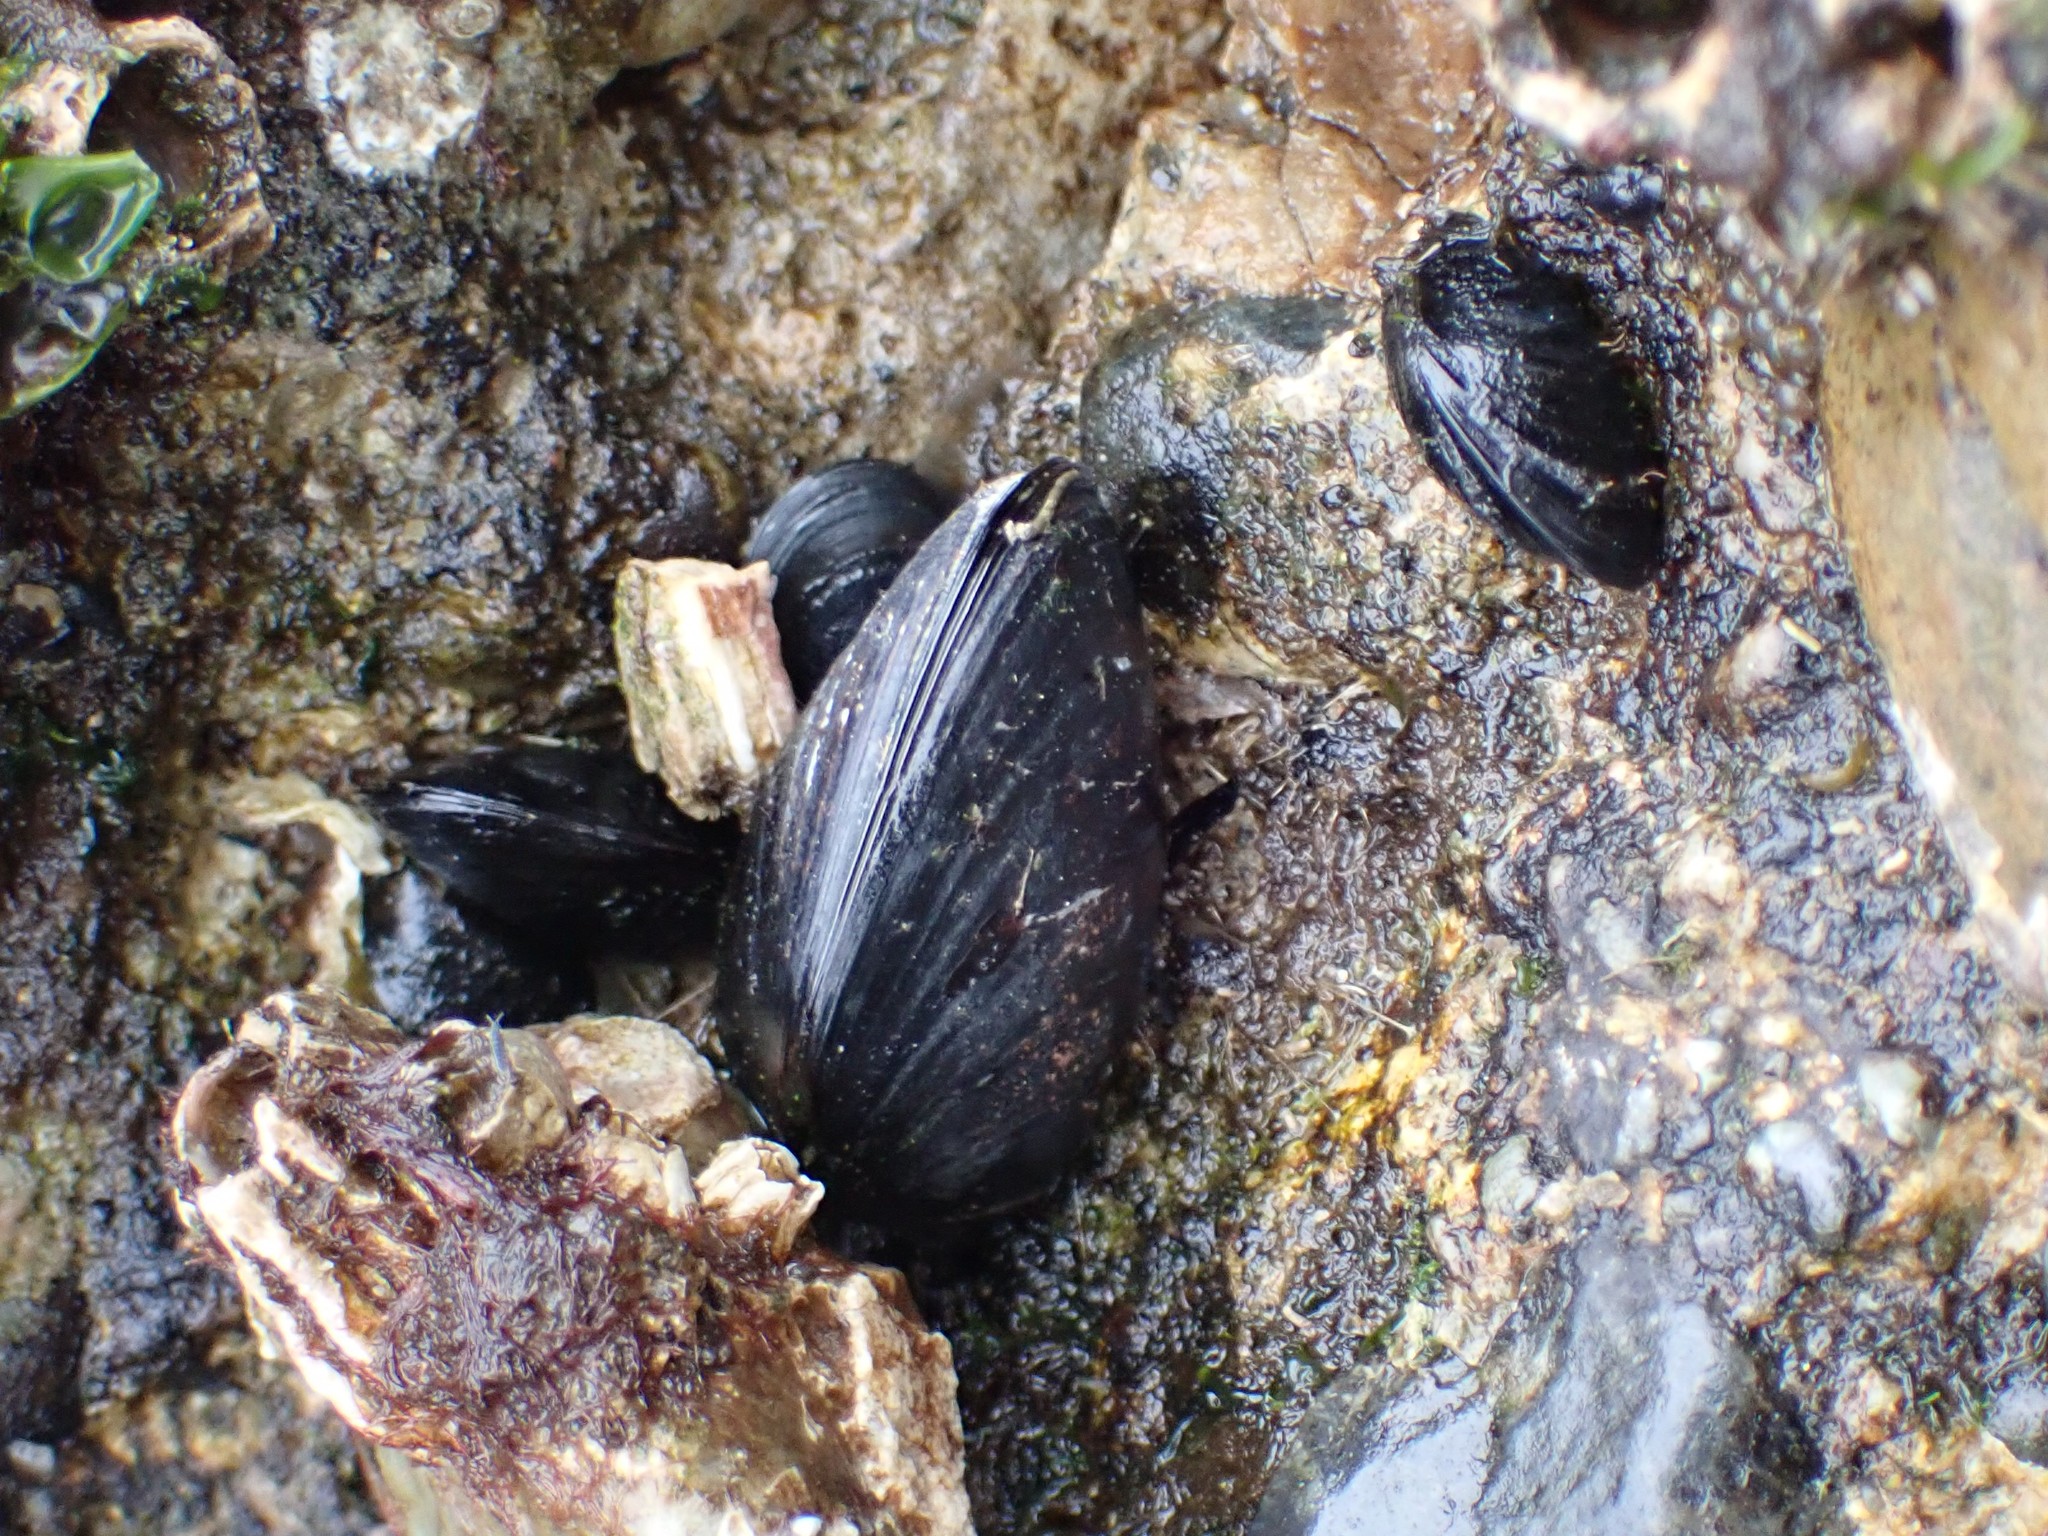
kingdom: Animalia
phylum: Mollusca
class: Bivalvia
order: Mytilida
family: Mytilidae
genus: Mytilus
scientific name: Mytilus
